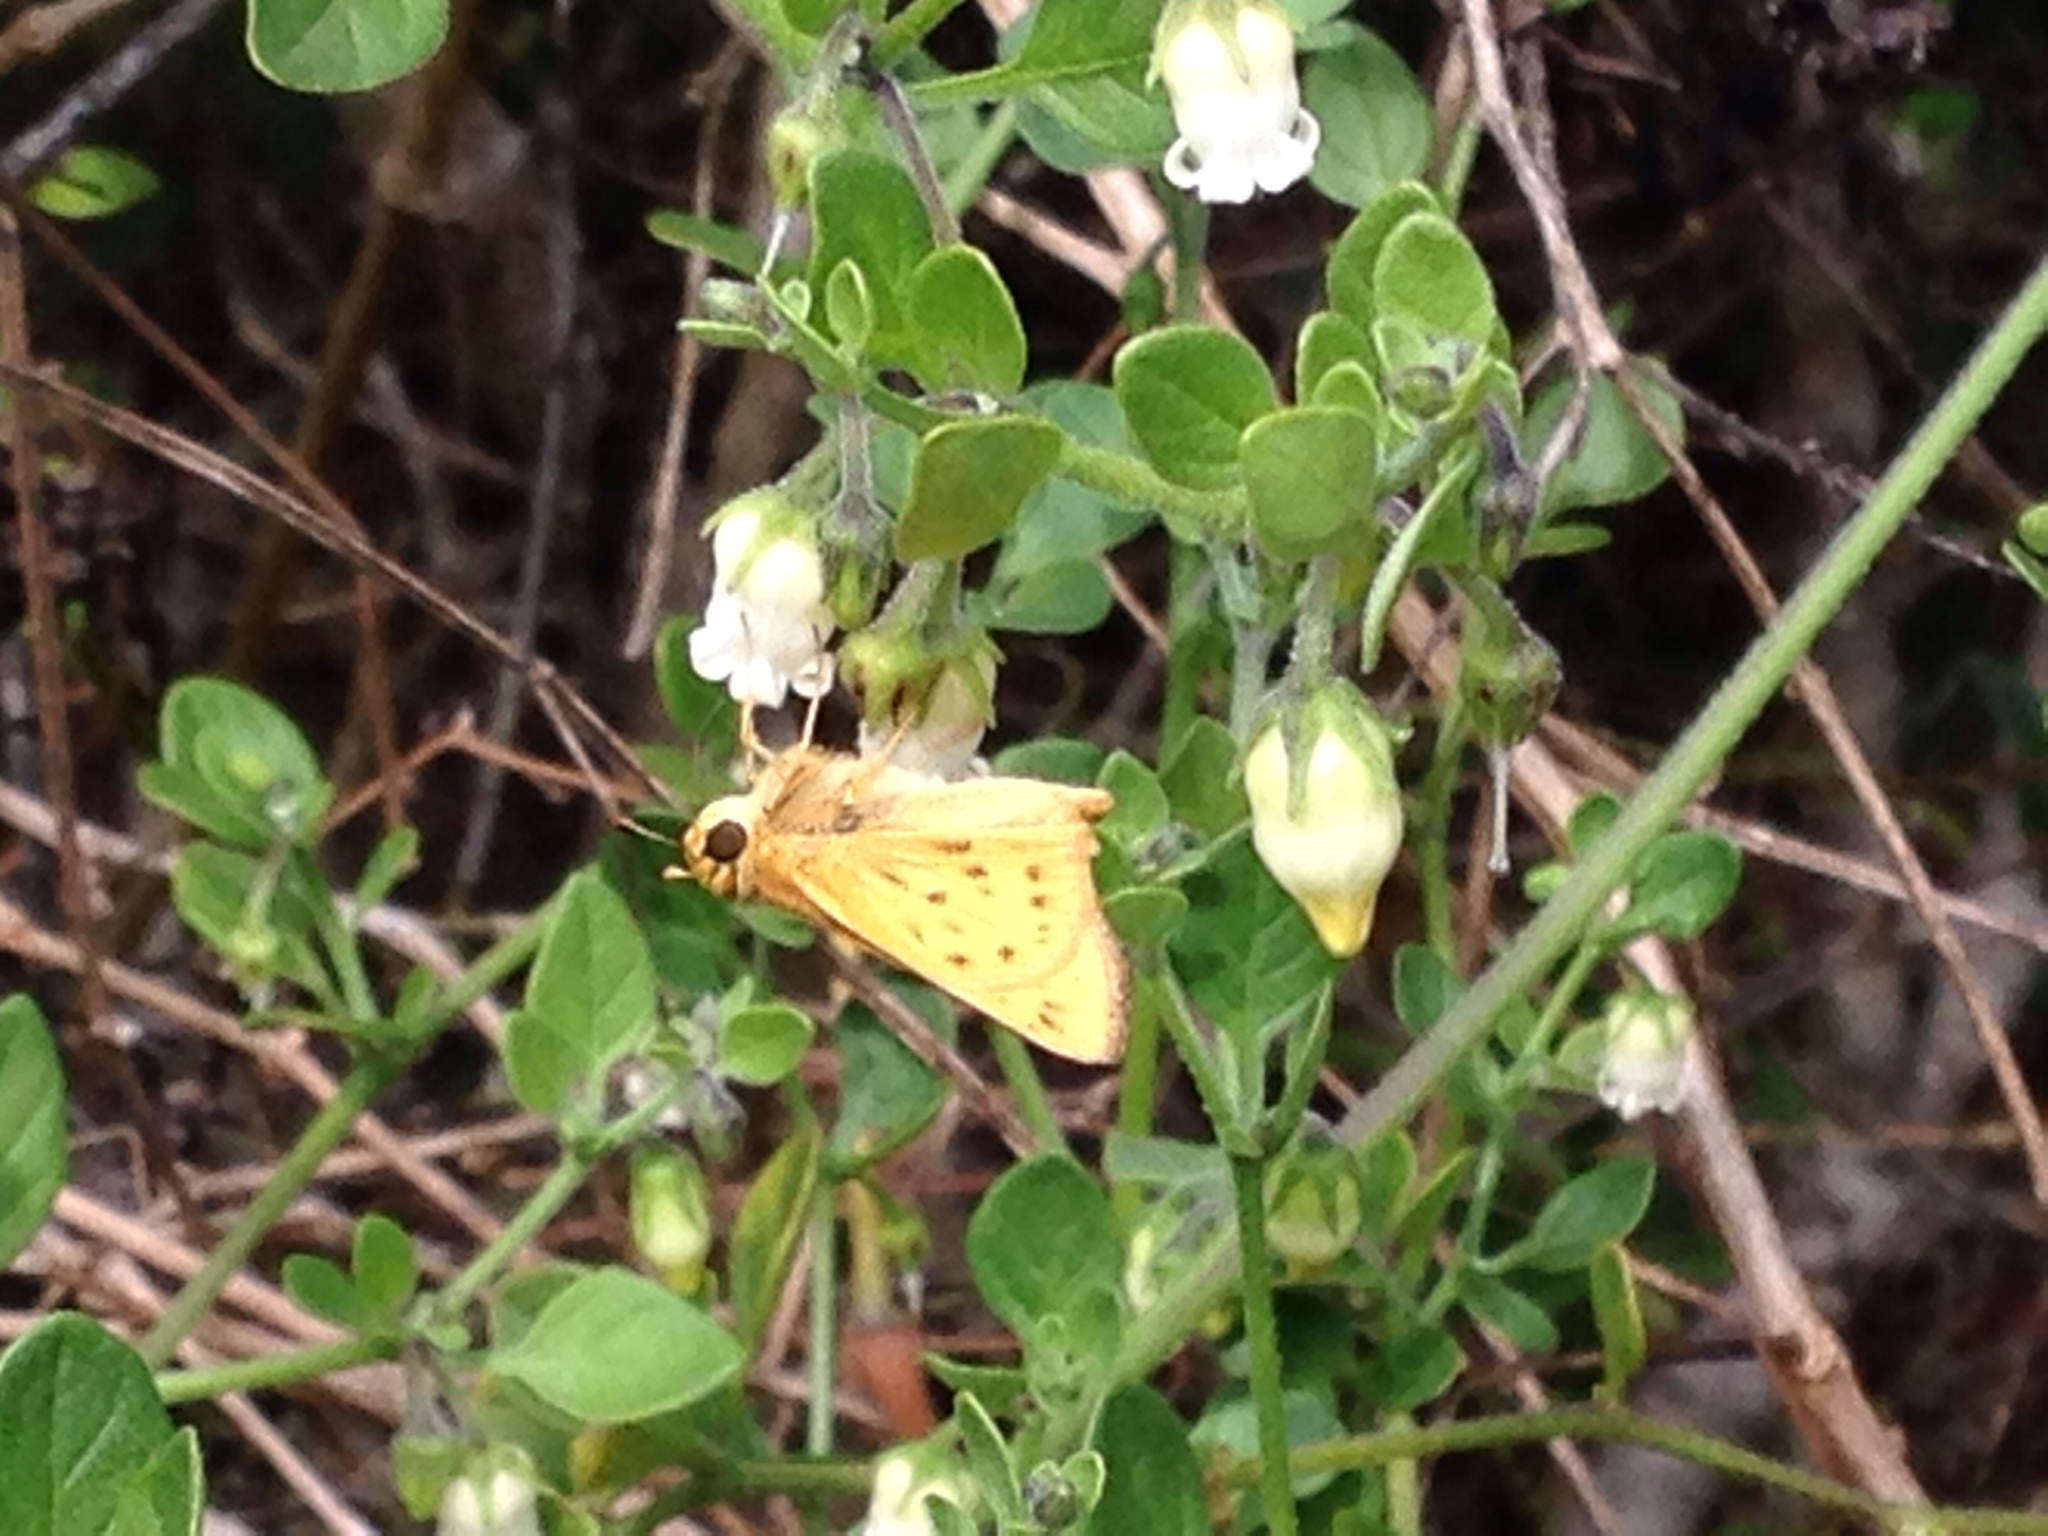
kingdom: Animalia
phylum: Arthropoda
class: Insecta
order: Lepidoptera
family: Hesperiidae
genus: Hylephila
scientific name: Hylephila phyleus
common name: Fiery skipper
